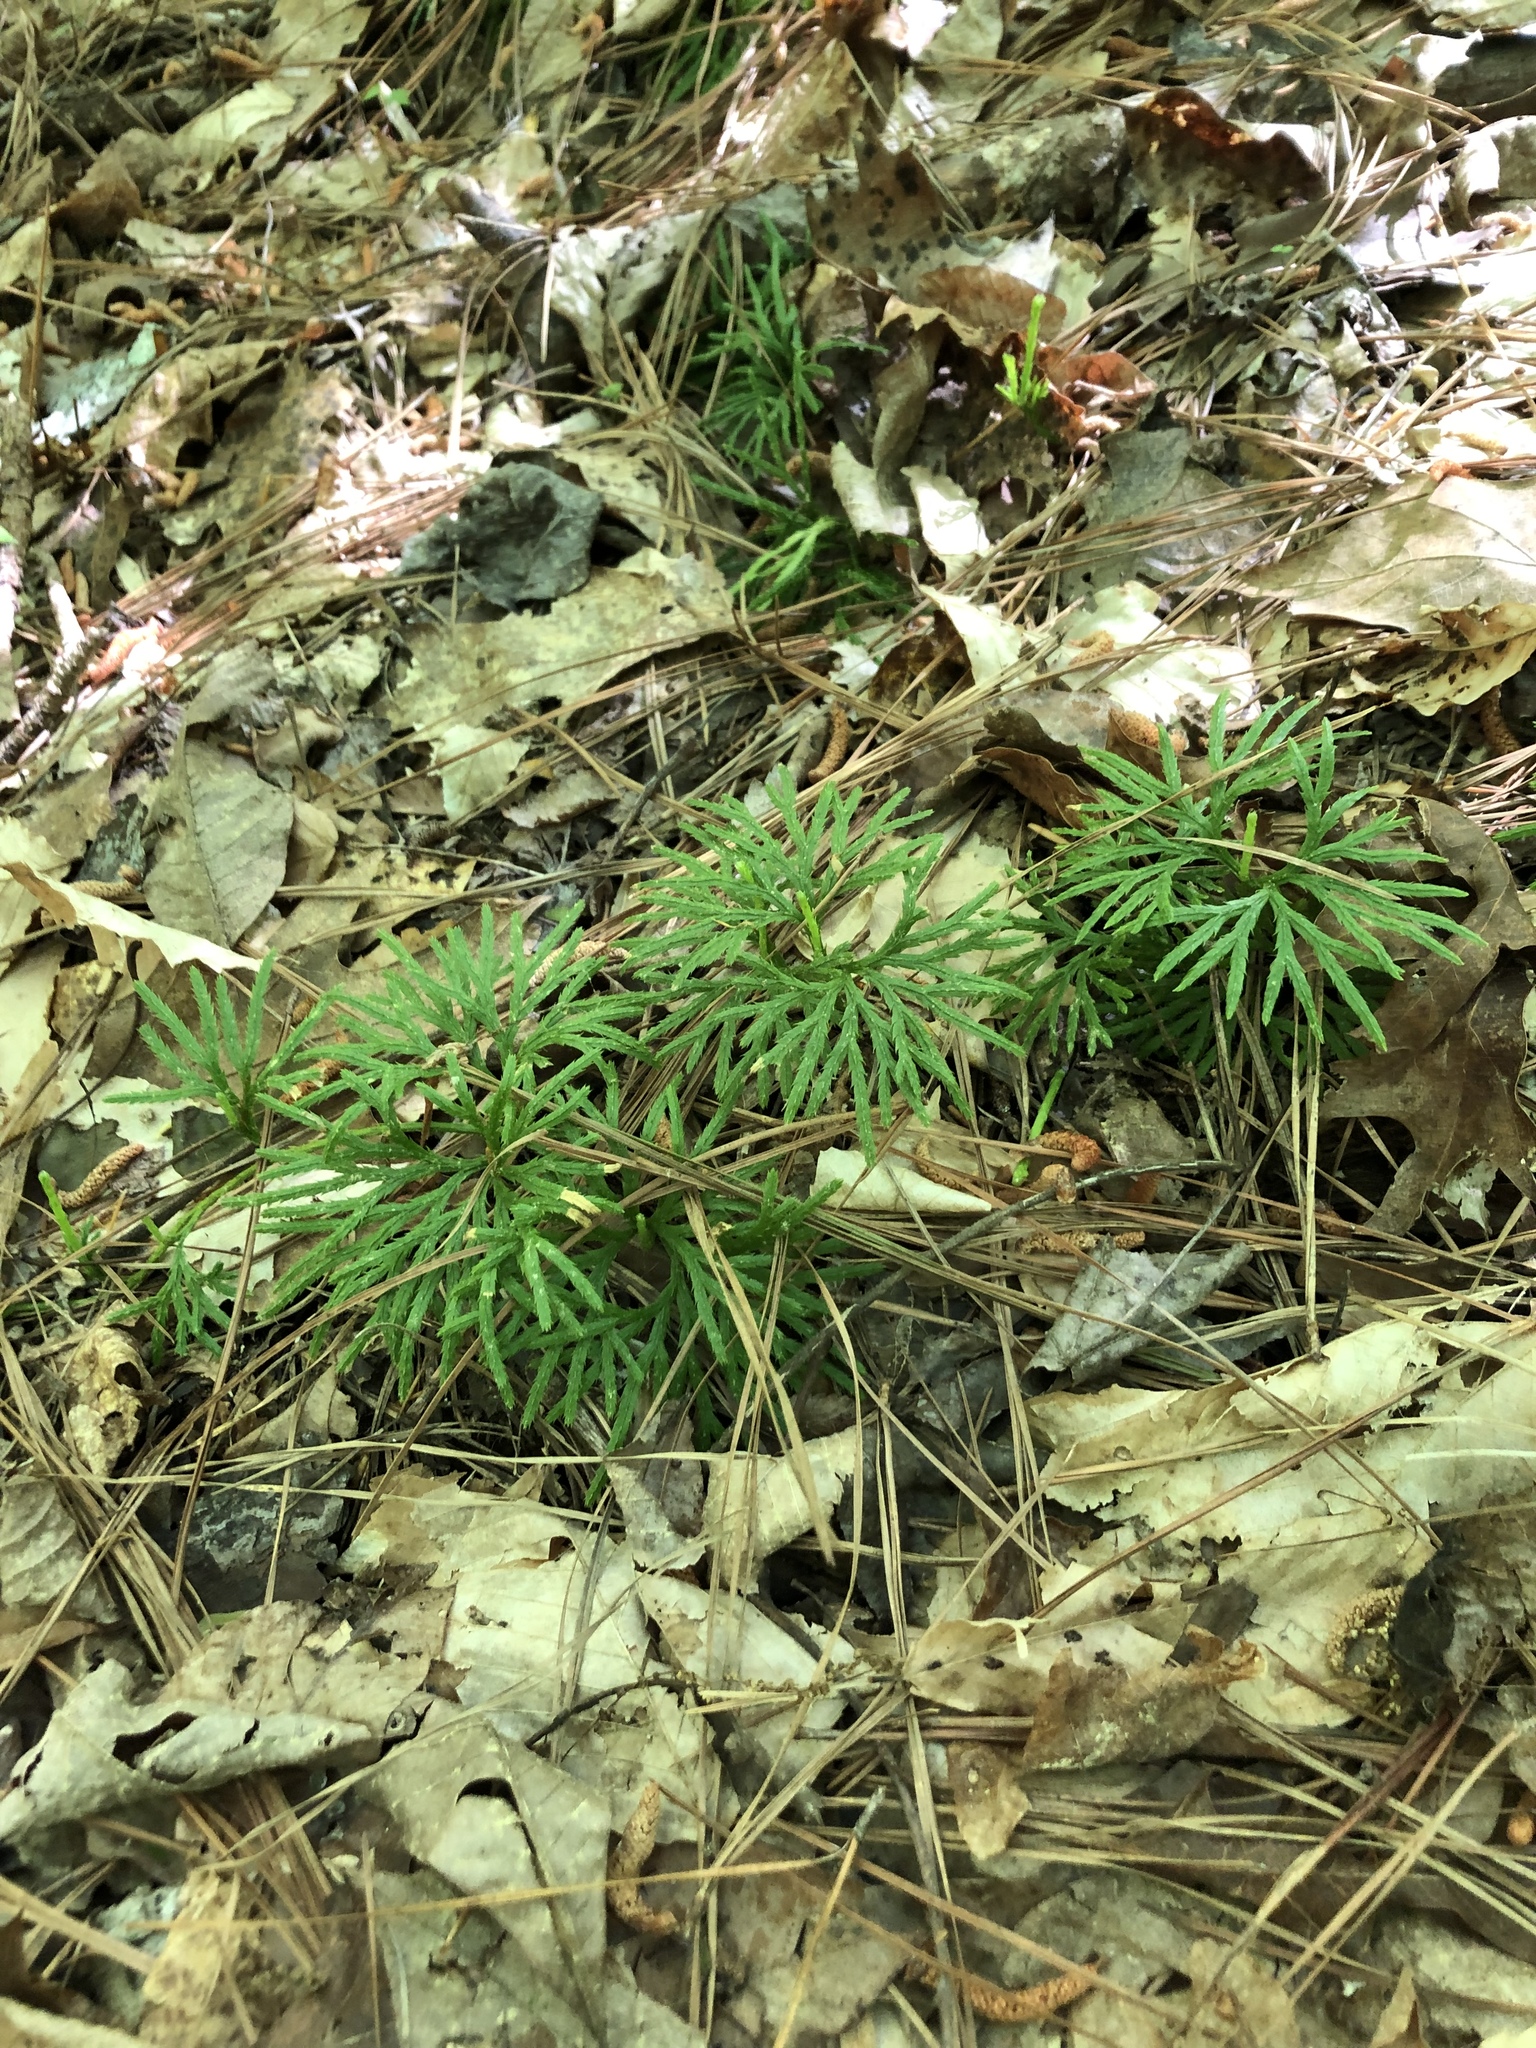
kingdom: Plantae
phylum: Tracheophyta
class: Lycopodiopsida
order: Lycopodiales
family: Lycopodiaceae
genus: Diphasiastrum
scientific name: Diphasiastrum digitatum
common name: Southern running-pine
